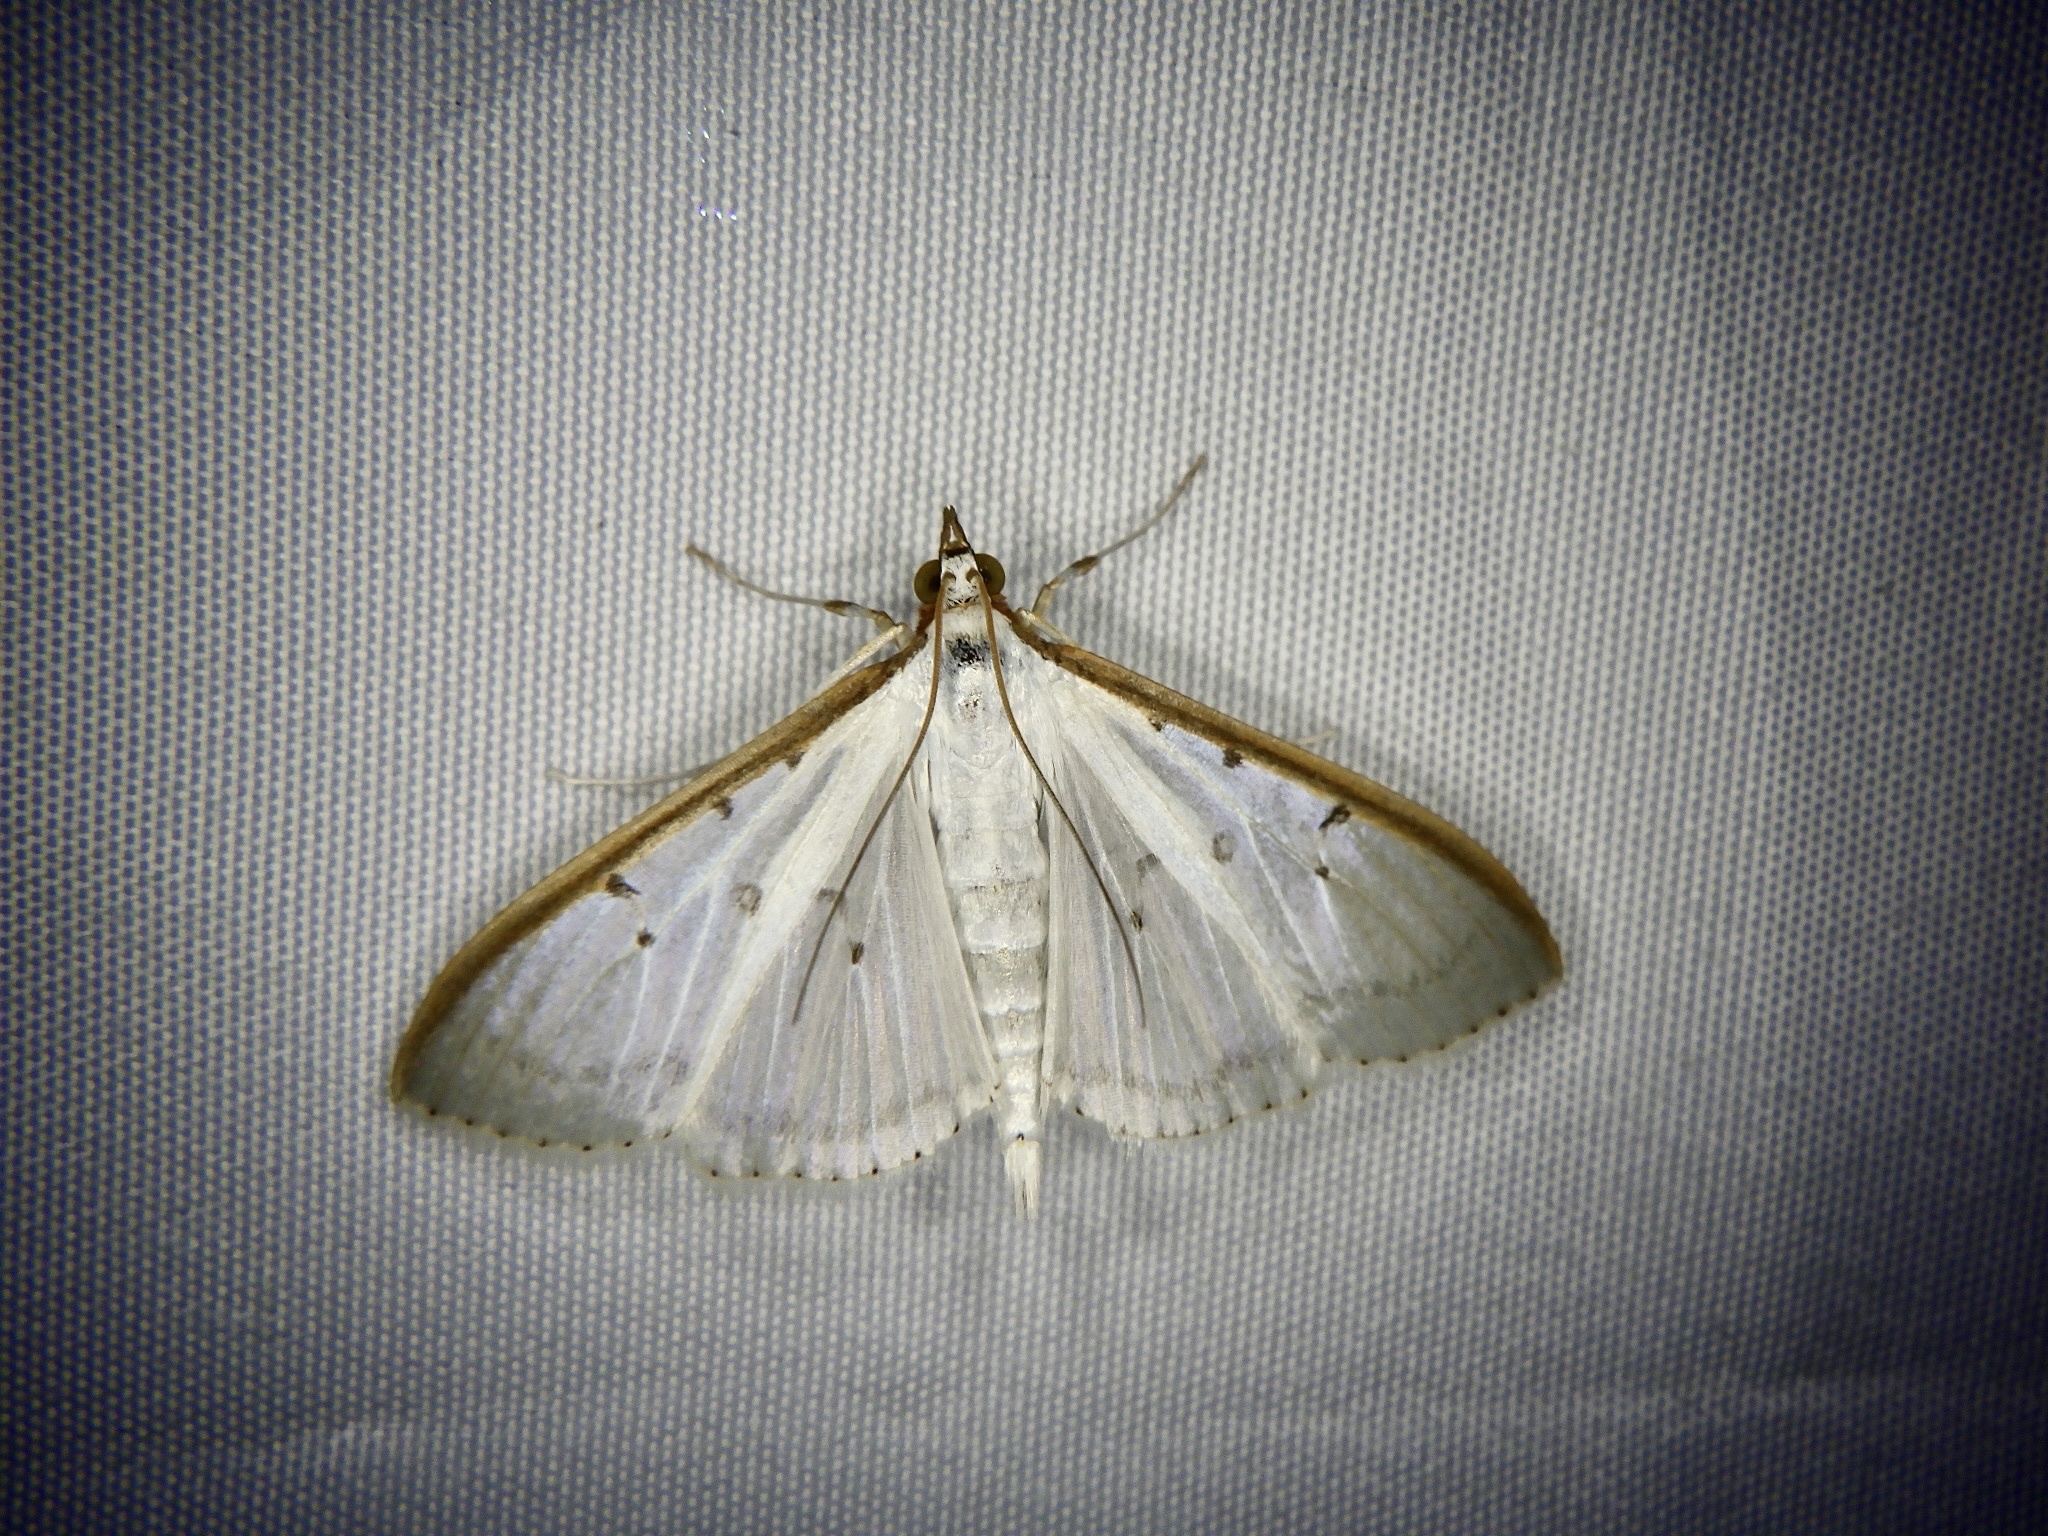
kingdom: Animalia
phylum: Arthropoda
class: Insecta
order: Lepidoptera
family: Crambidae
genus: Palpita
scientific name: Palpita nigropunctalis
